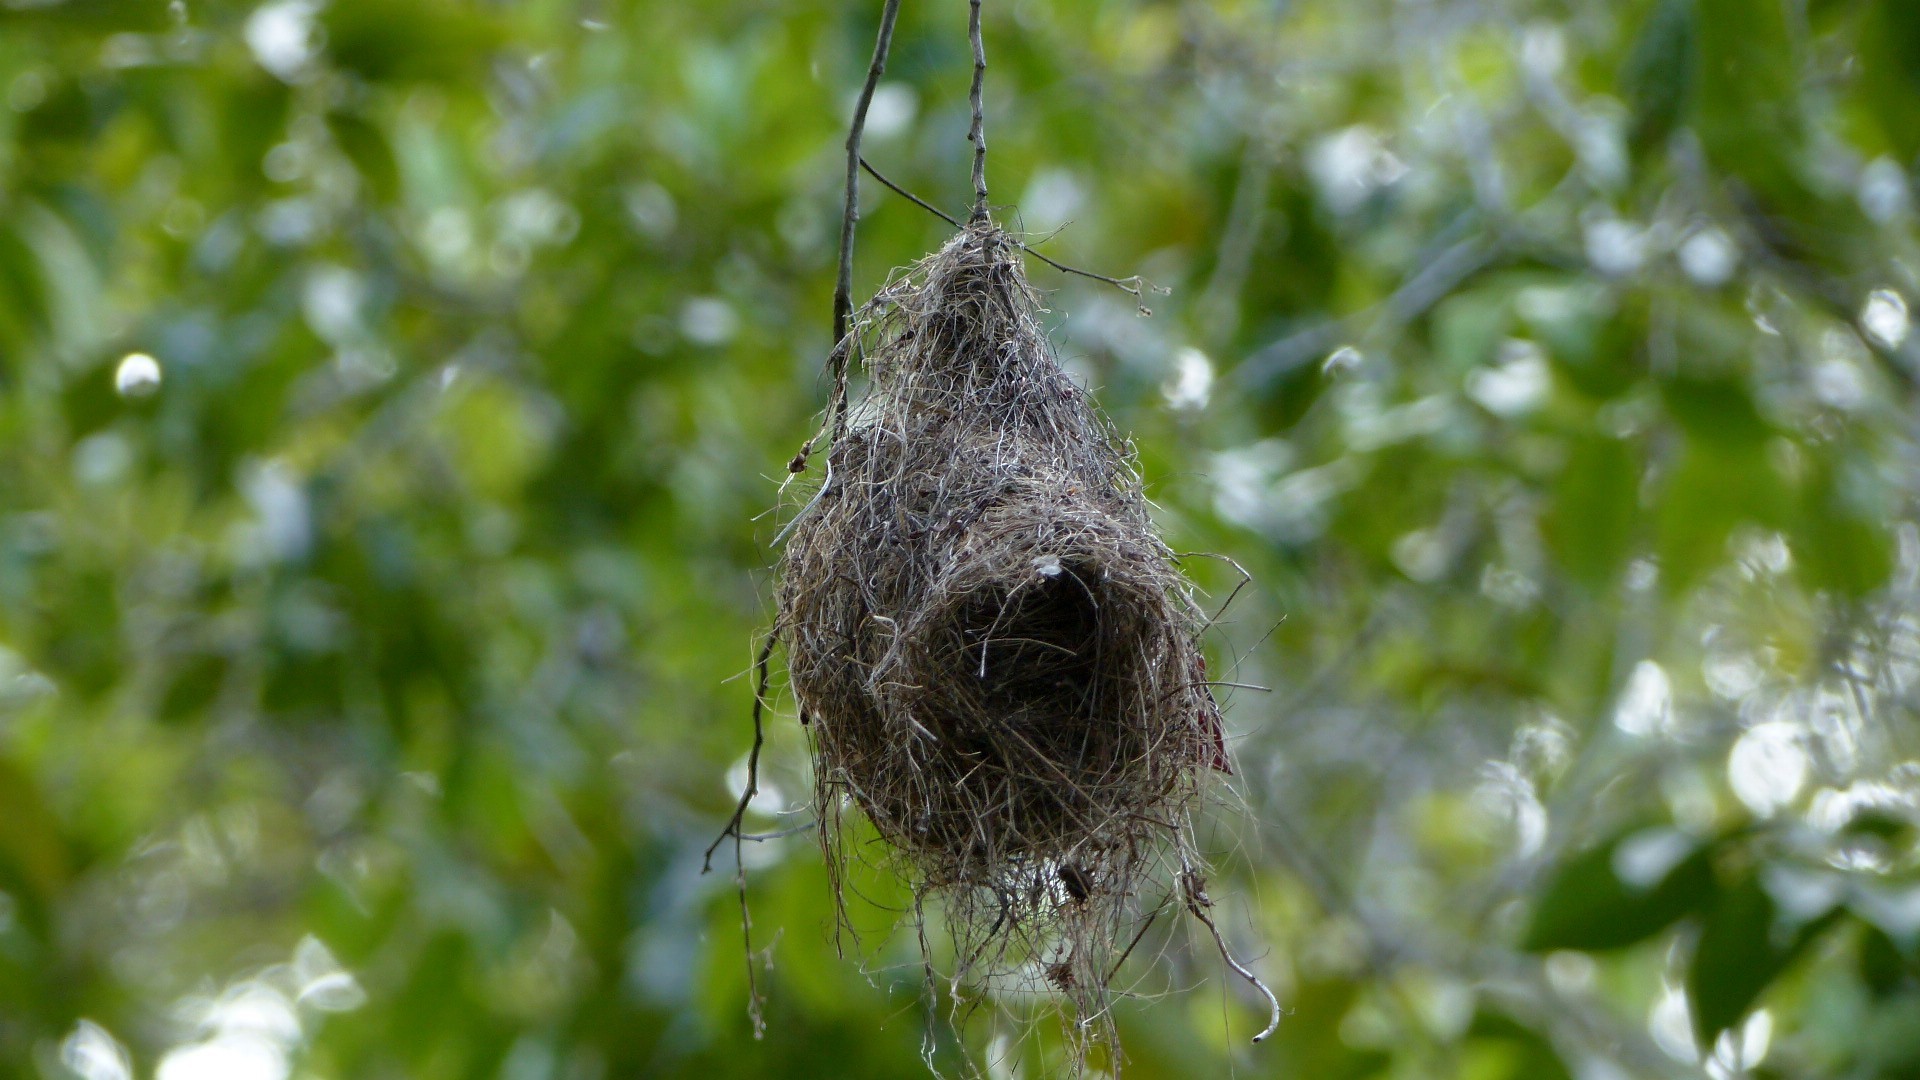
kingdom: Animalia
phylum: Chordata
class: Aves
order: Passeriformes
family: Tyrannidae
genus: Tolmomyias
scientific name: Tolmomyias flaviventris
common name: Ochre-lored flatbill
